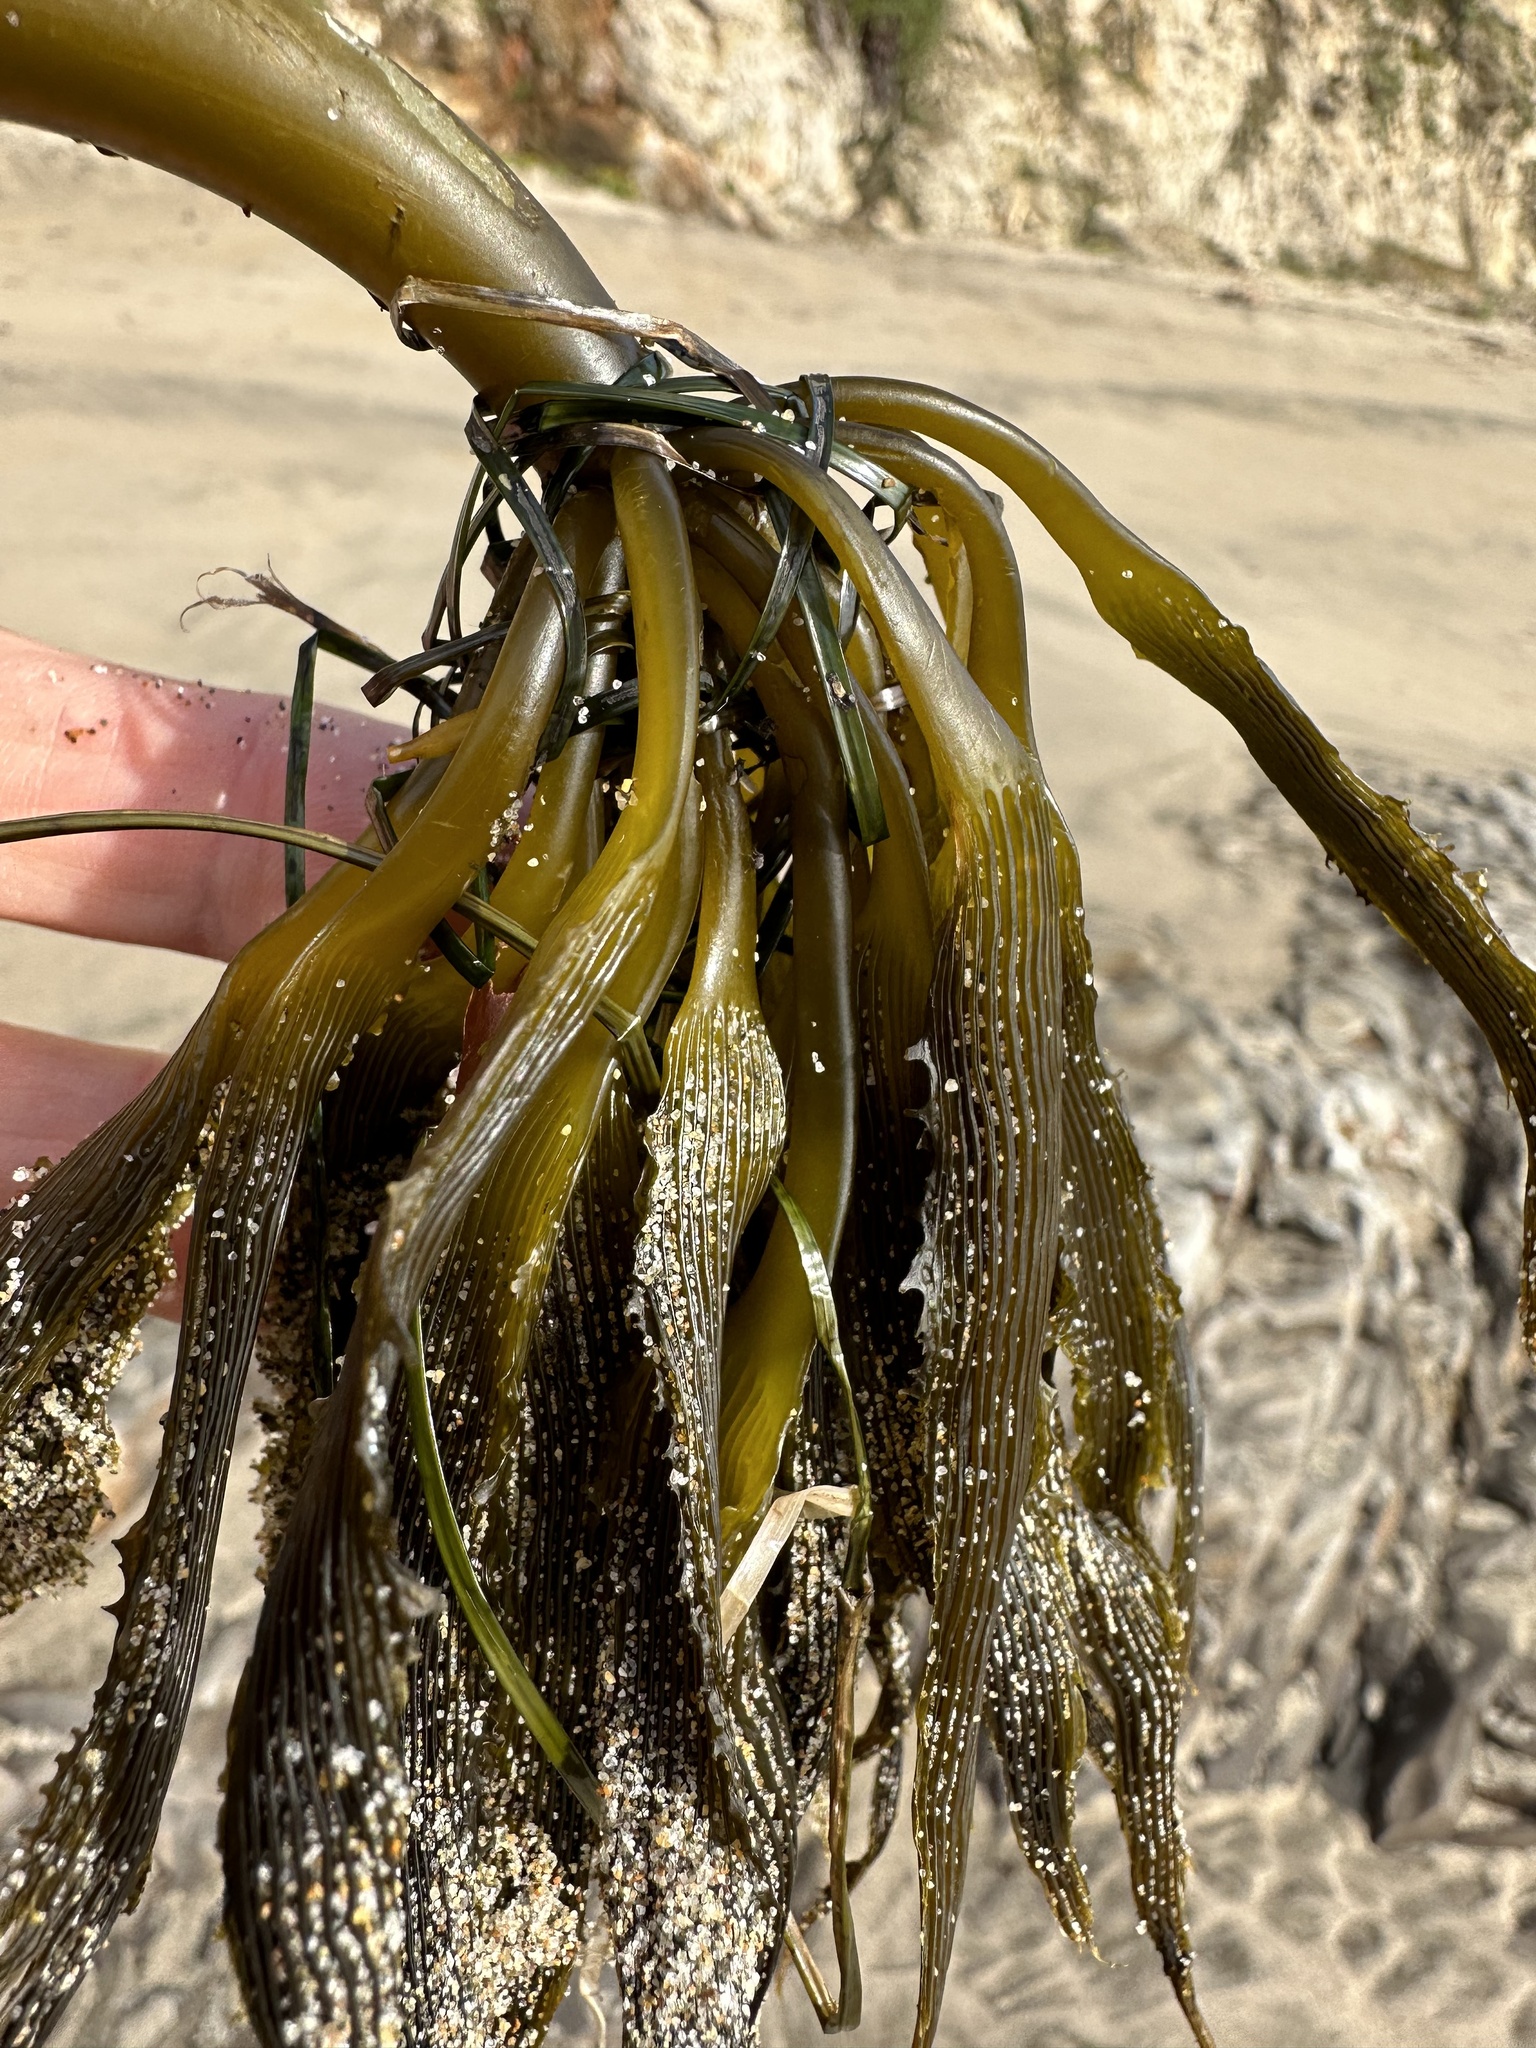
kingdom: Chromista
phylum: Ochrophyta
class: Phaeophyceae
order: Laminariales
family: Laminariaceae
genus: Postelsia
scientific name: Postelsia palmiformis
